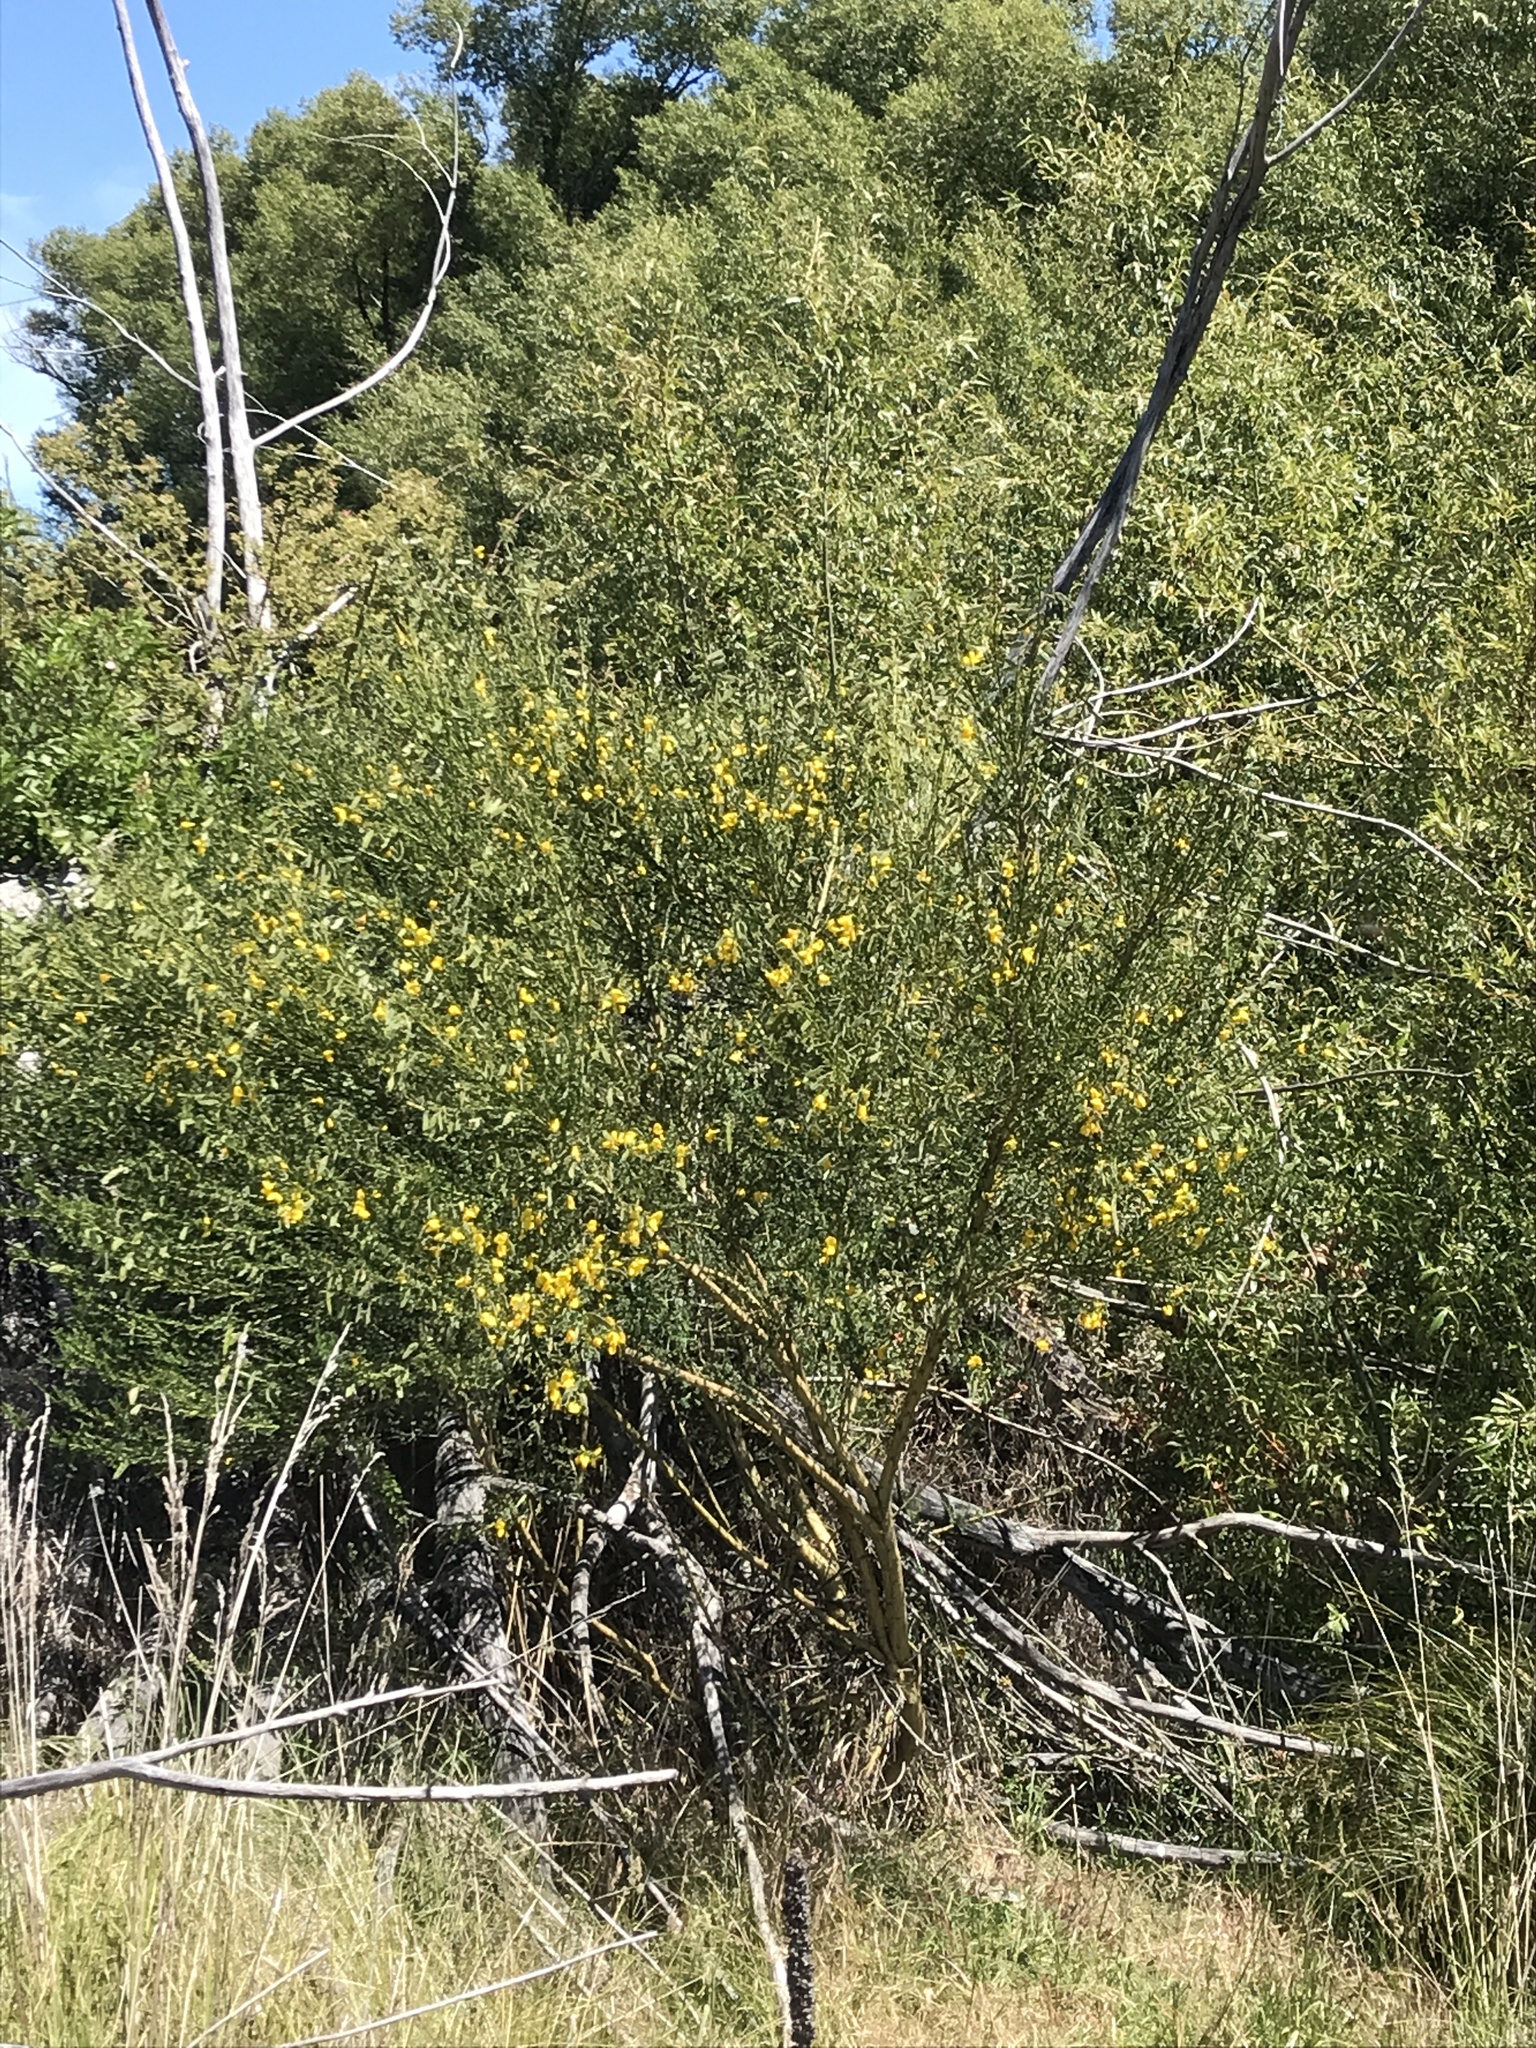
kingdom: Plantae
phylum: Tracheophyta
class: Magnoliopsida
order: Fabales
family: Fabaceae
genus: Cytisus
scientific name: Cytisus scoparius
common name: Scotch broom
